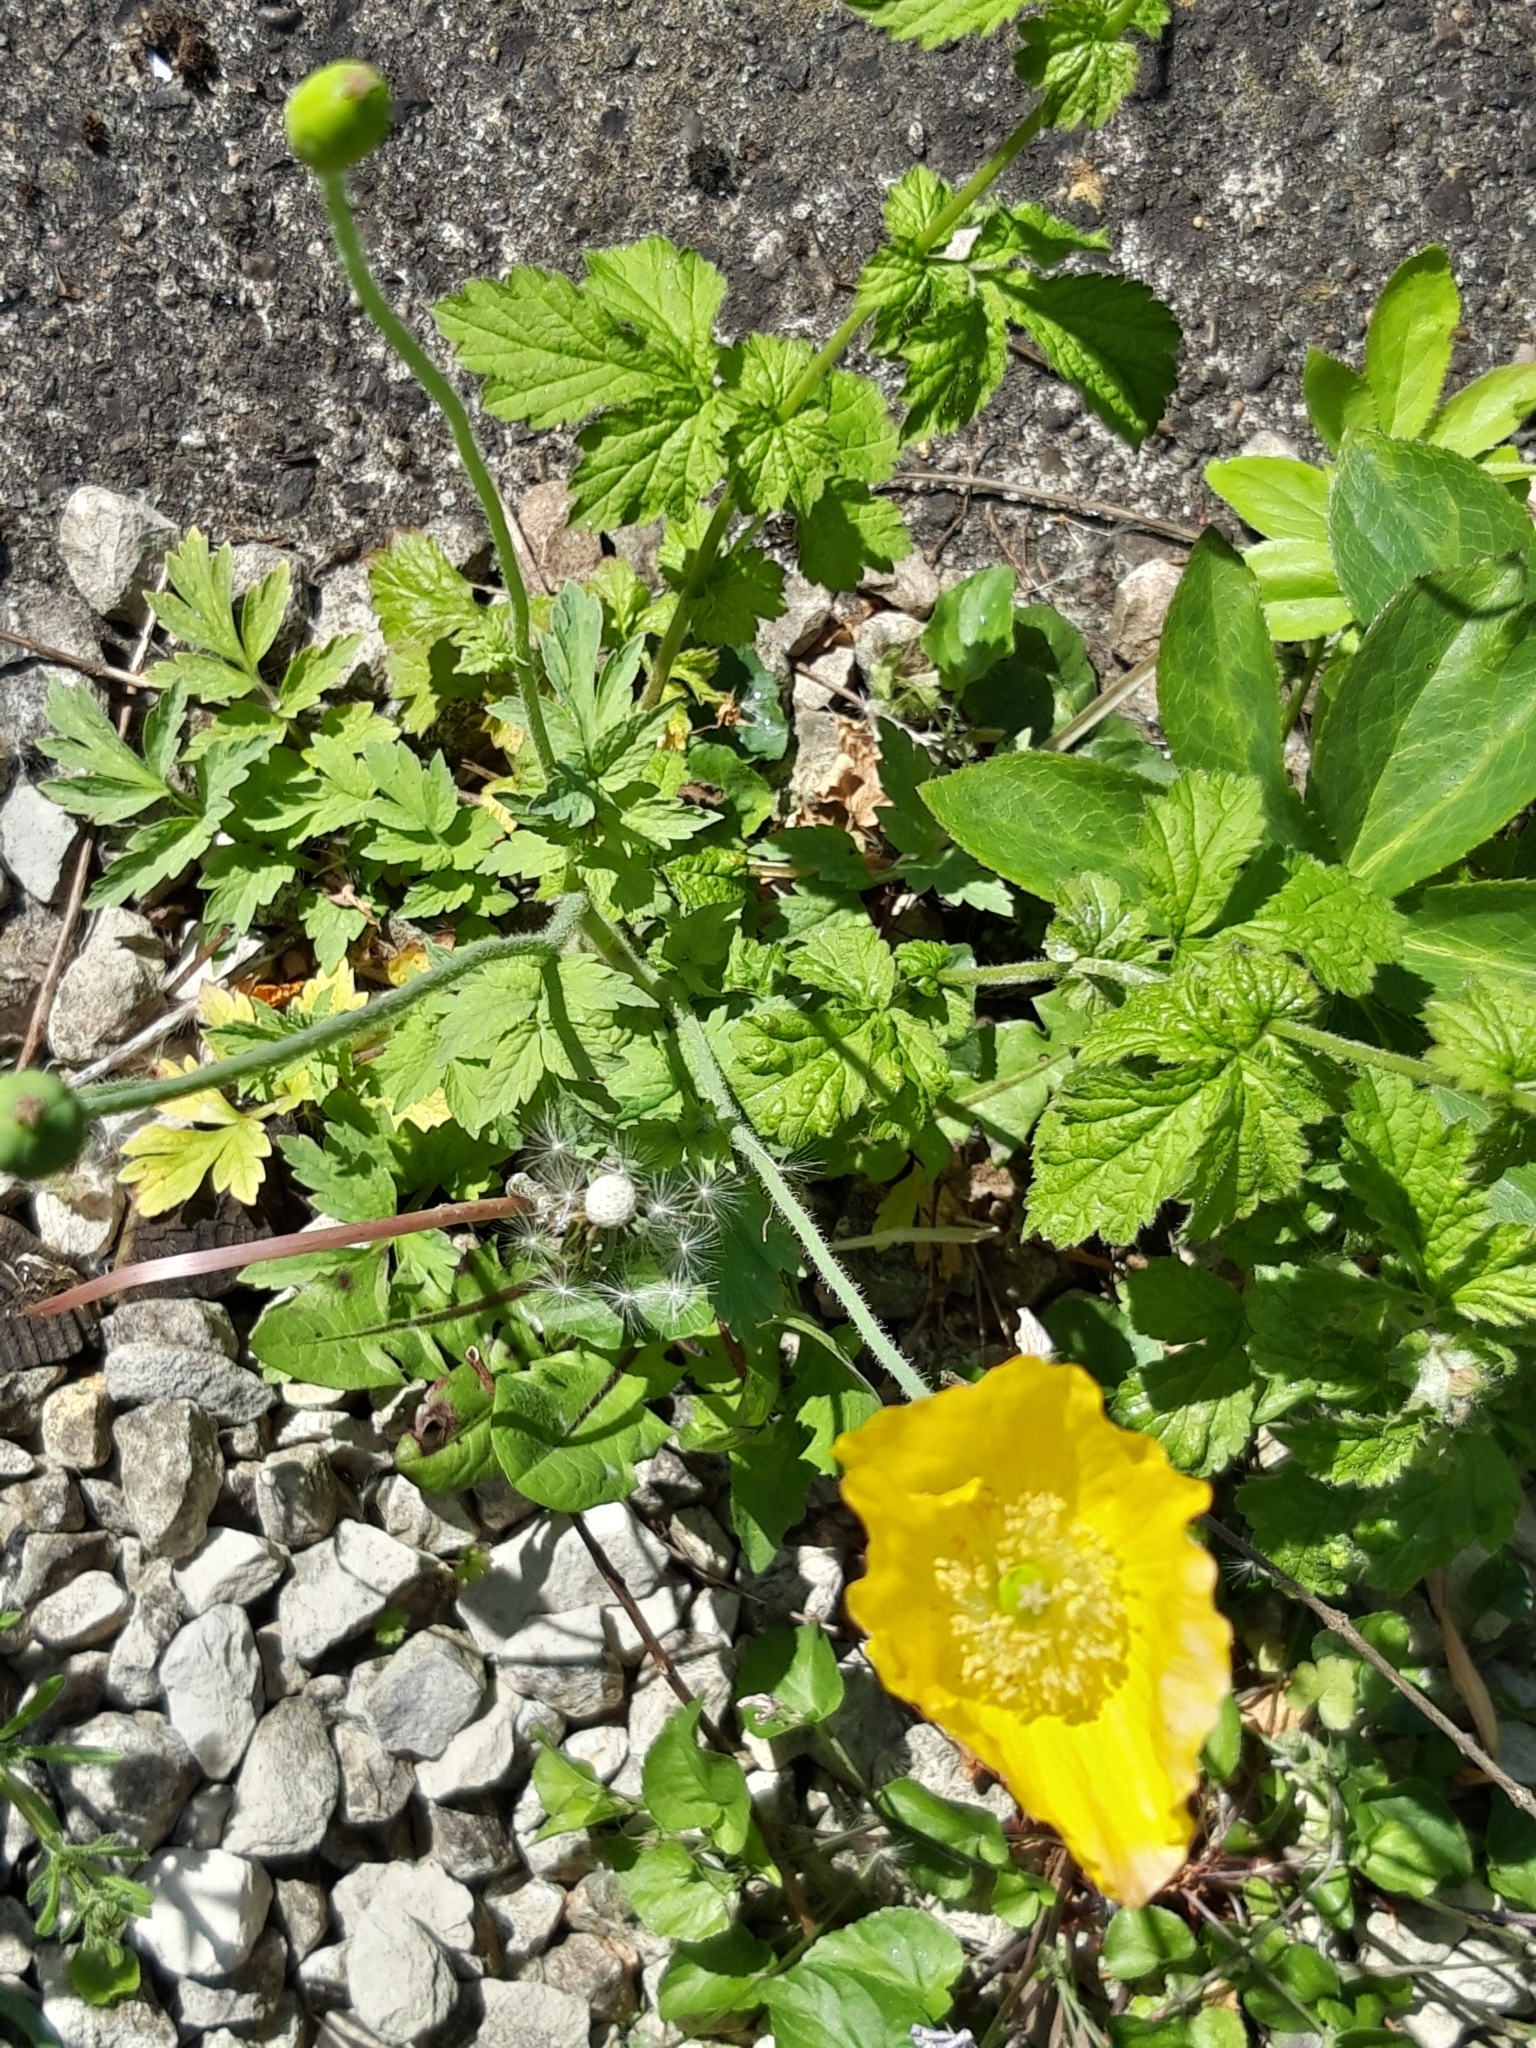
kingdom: Plantae
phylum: Tracheophyta
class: Magnoliopsida
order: Ranunculales
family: Papaveraceae
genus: Papaver
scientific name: Papaver cambricum
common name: Poppy
